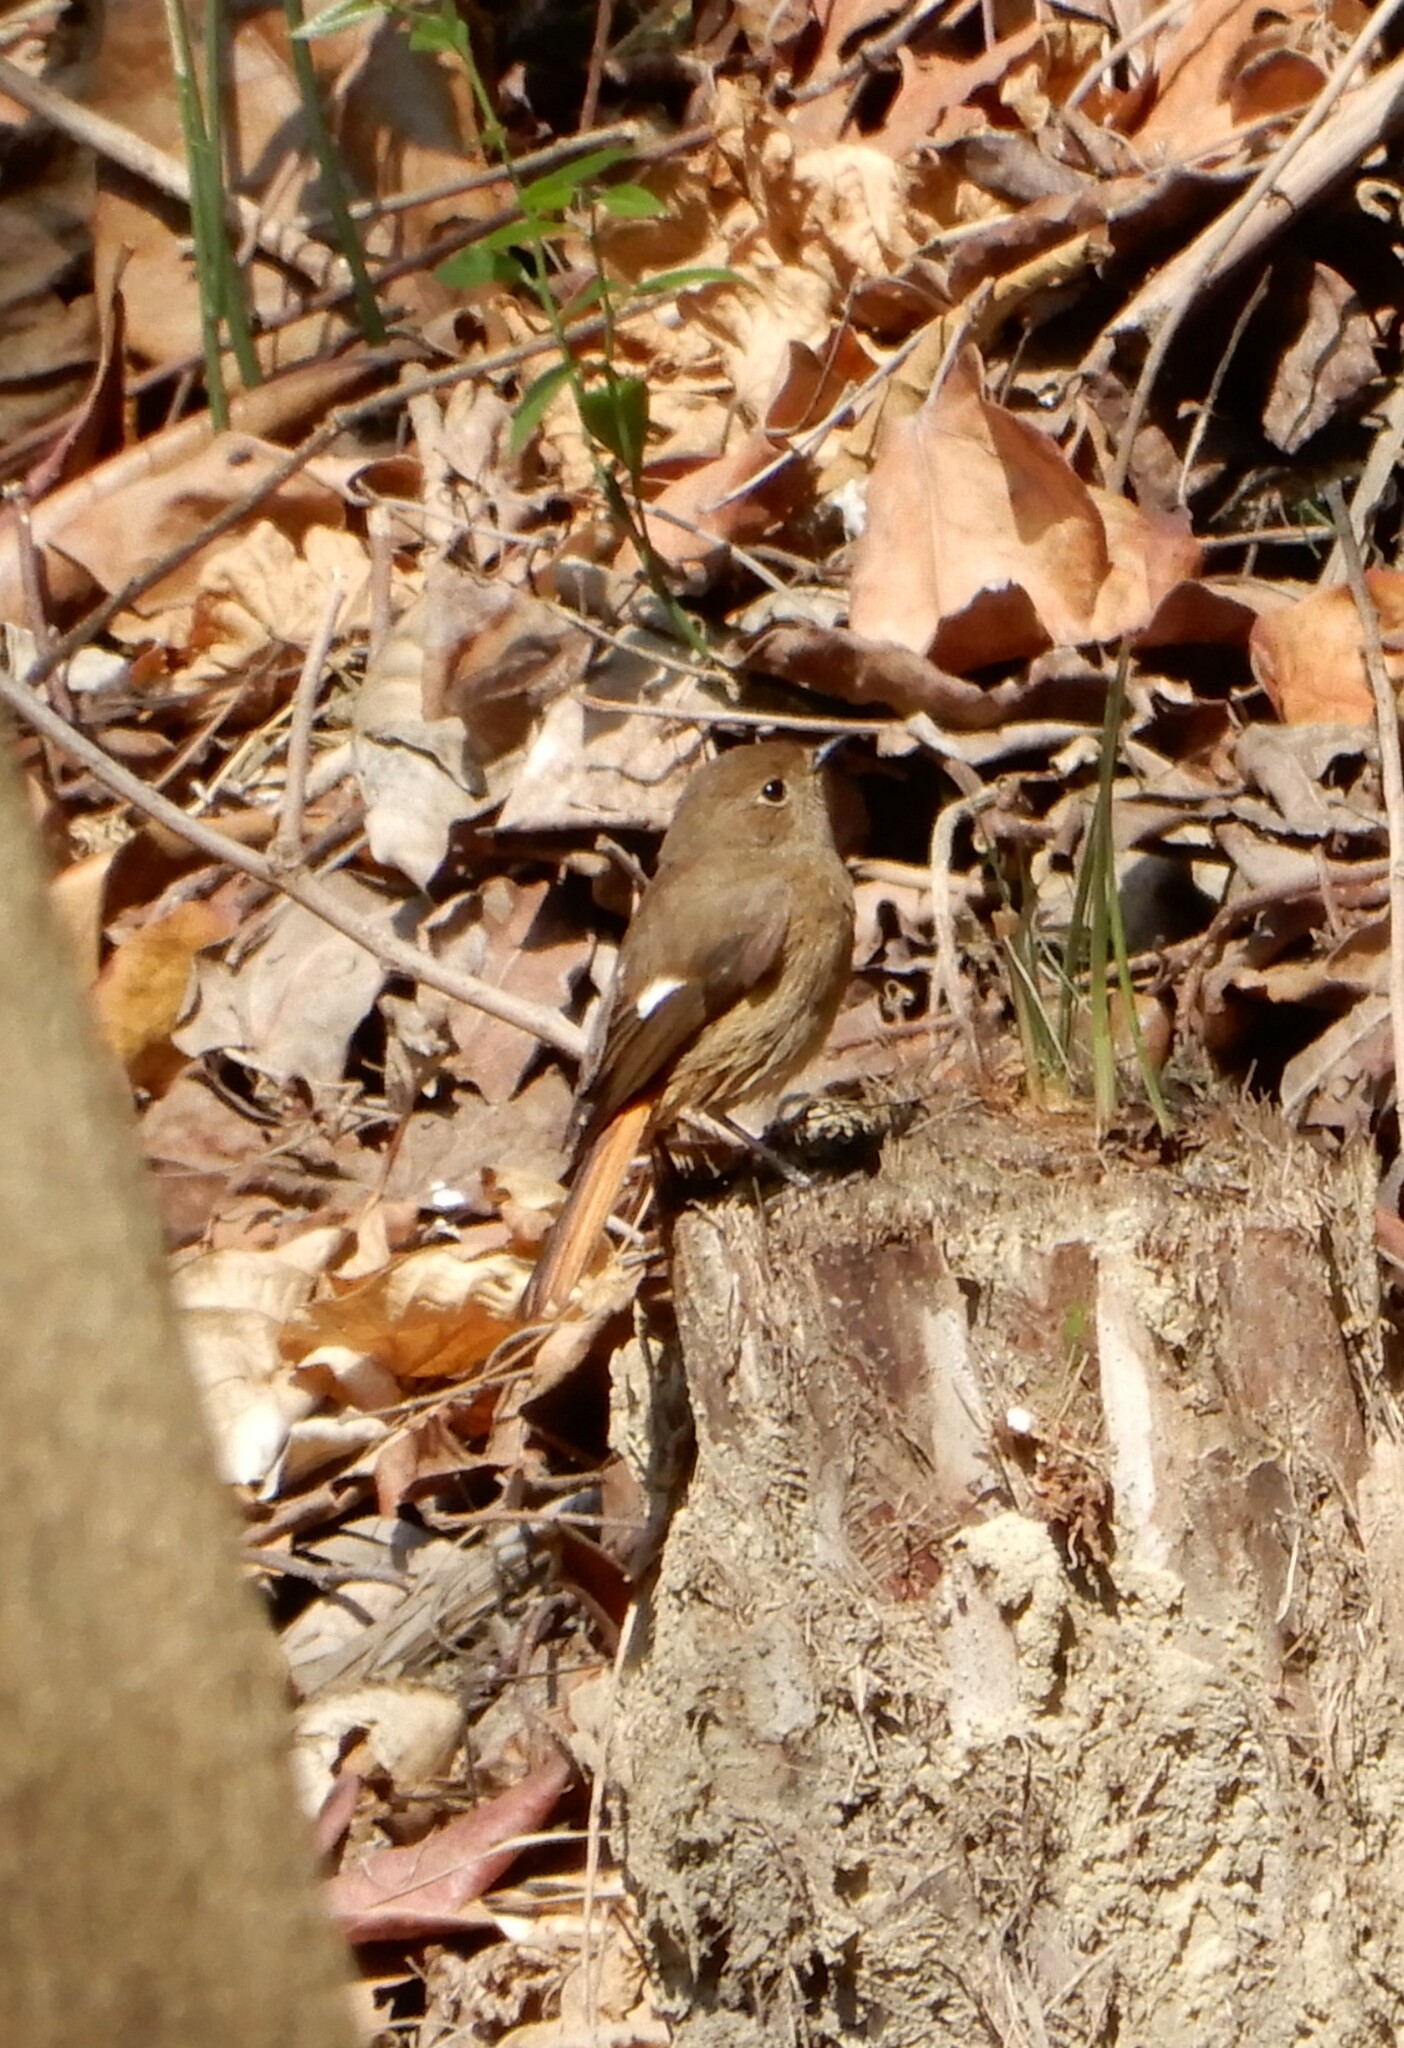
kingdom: Animalia
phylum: Chordata
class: Aves
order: Passeriformes
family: Muscicapidae
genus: Phoenicurus
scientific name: Phoenicurus auroreus
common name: Daurian redstart
